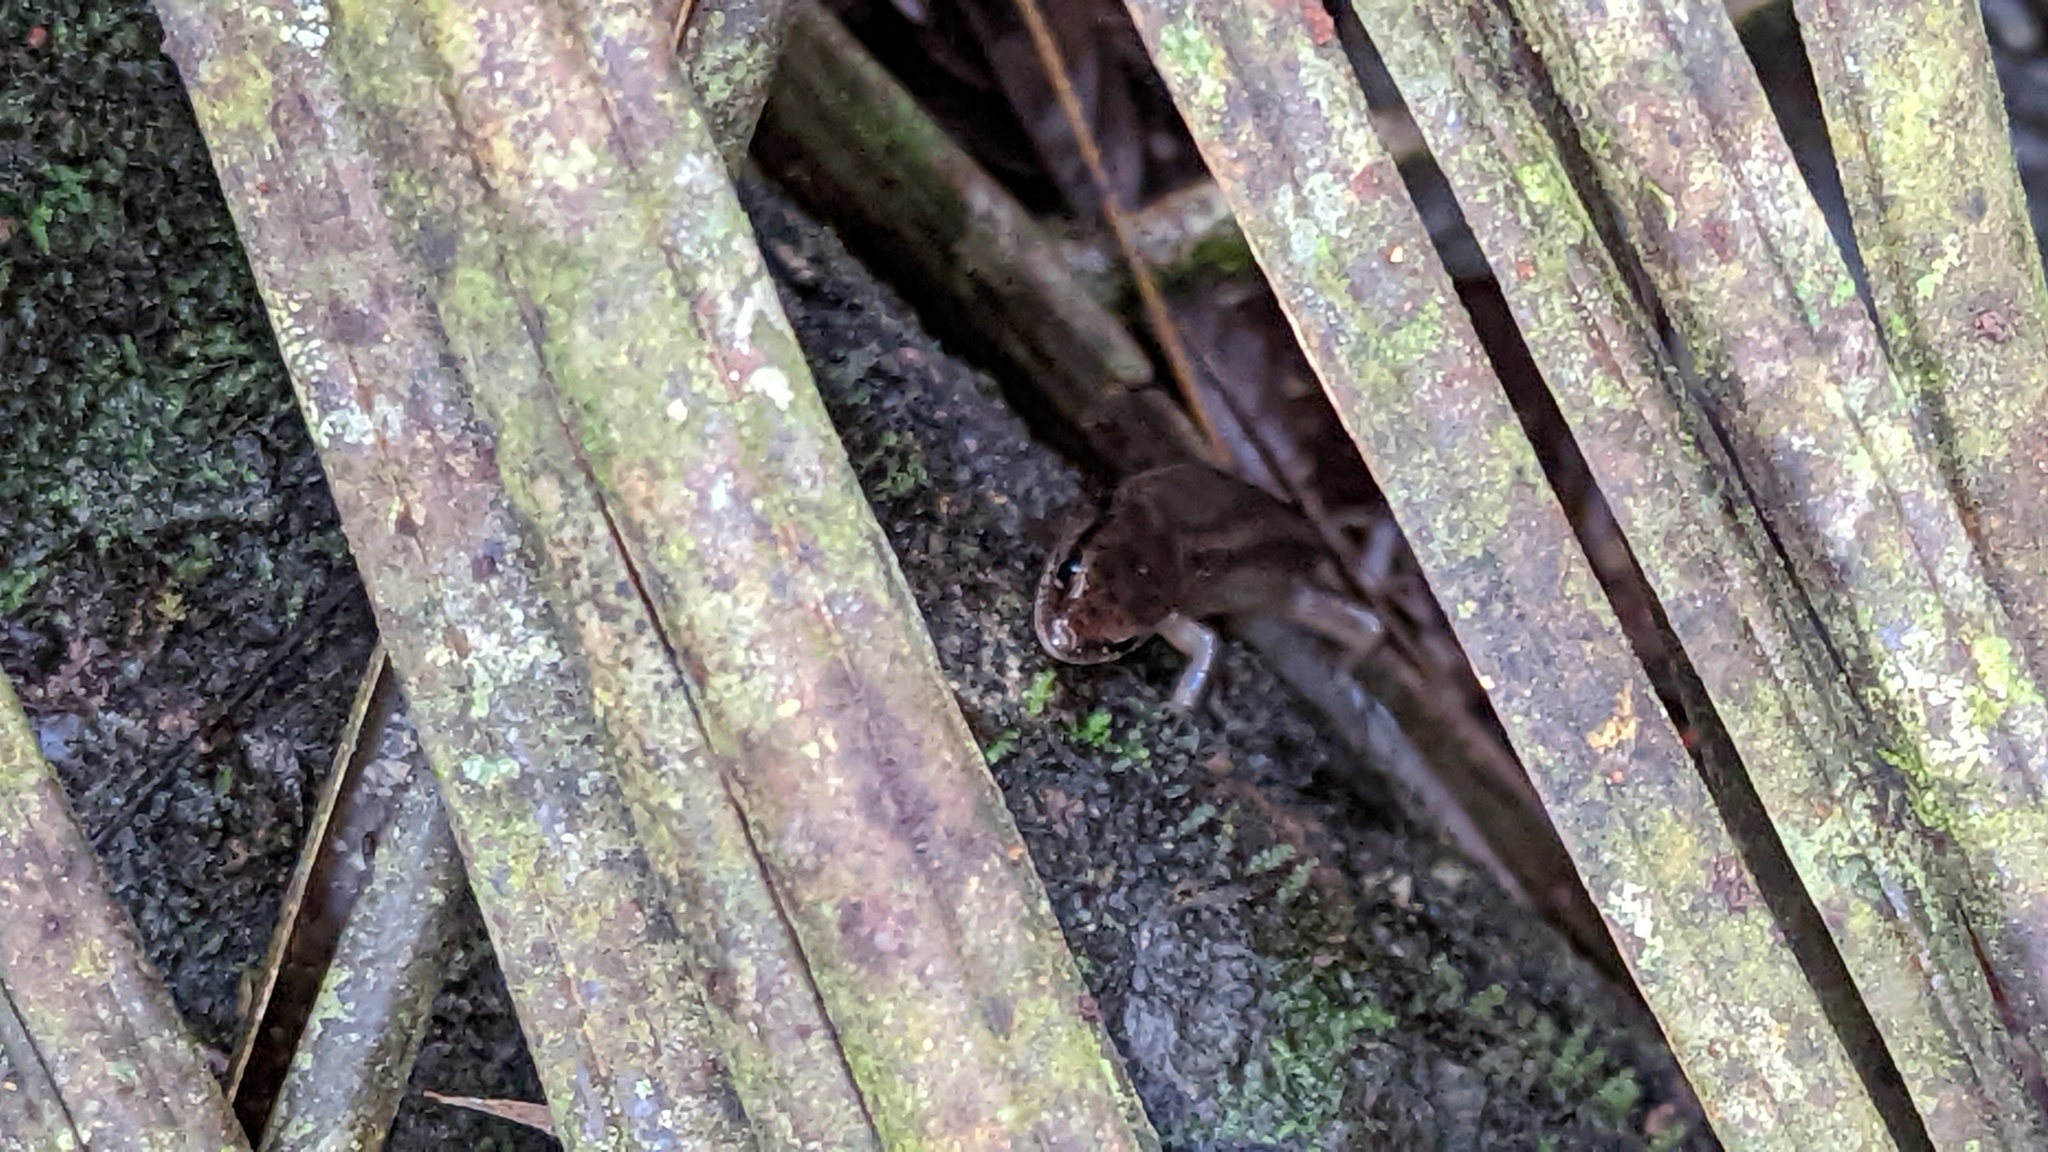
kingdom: Animalia
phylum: Chordata
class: Squamata
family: Scincidae
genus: Scincella
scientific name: Scincella cherriei
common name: Brown forest skink
